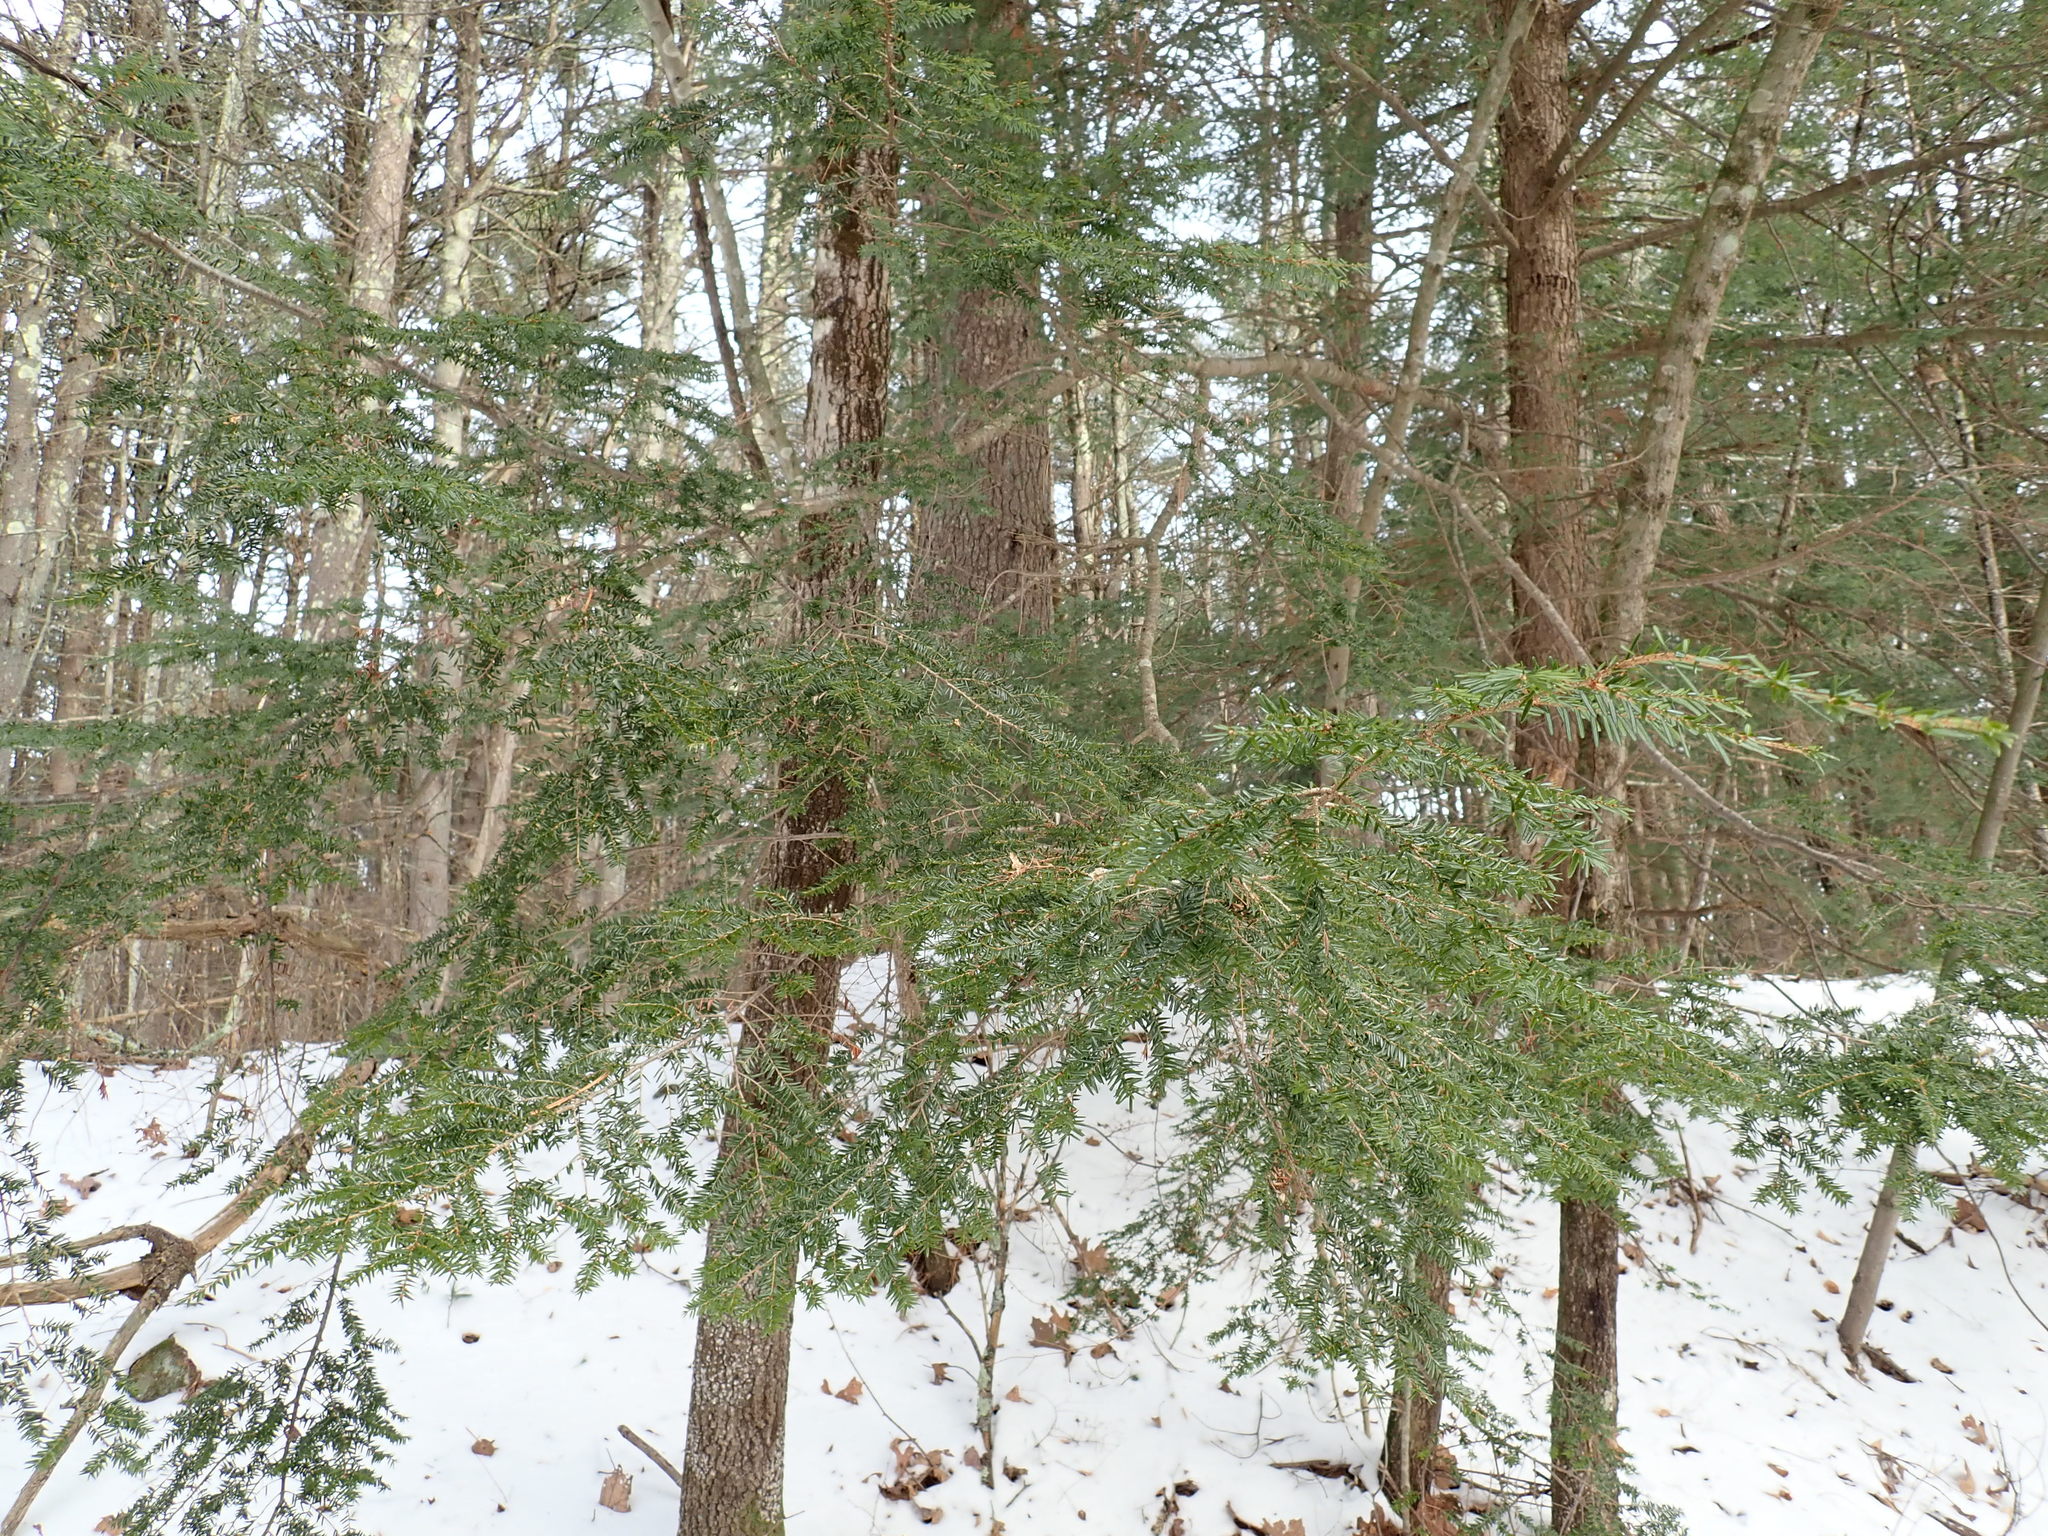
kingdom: Plantae
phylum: Tracheophyta
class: Pinopsida
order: Pinales
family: Pinaceae
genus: Tsuga
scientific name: Tsuga canadensis
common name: Eastern hemlock
